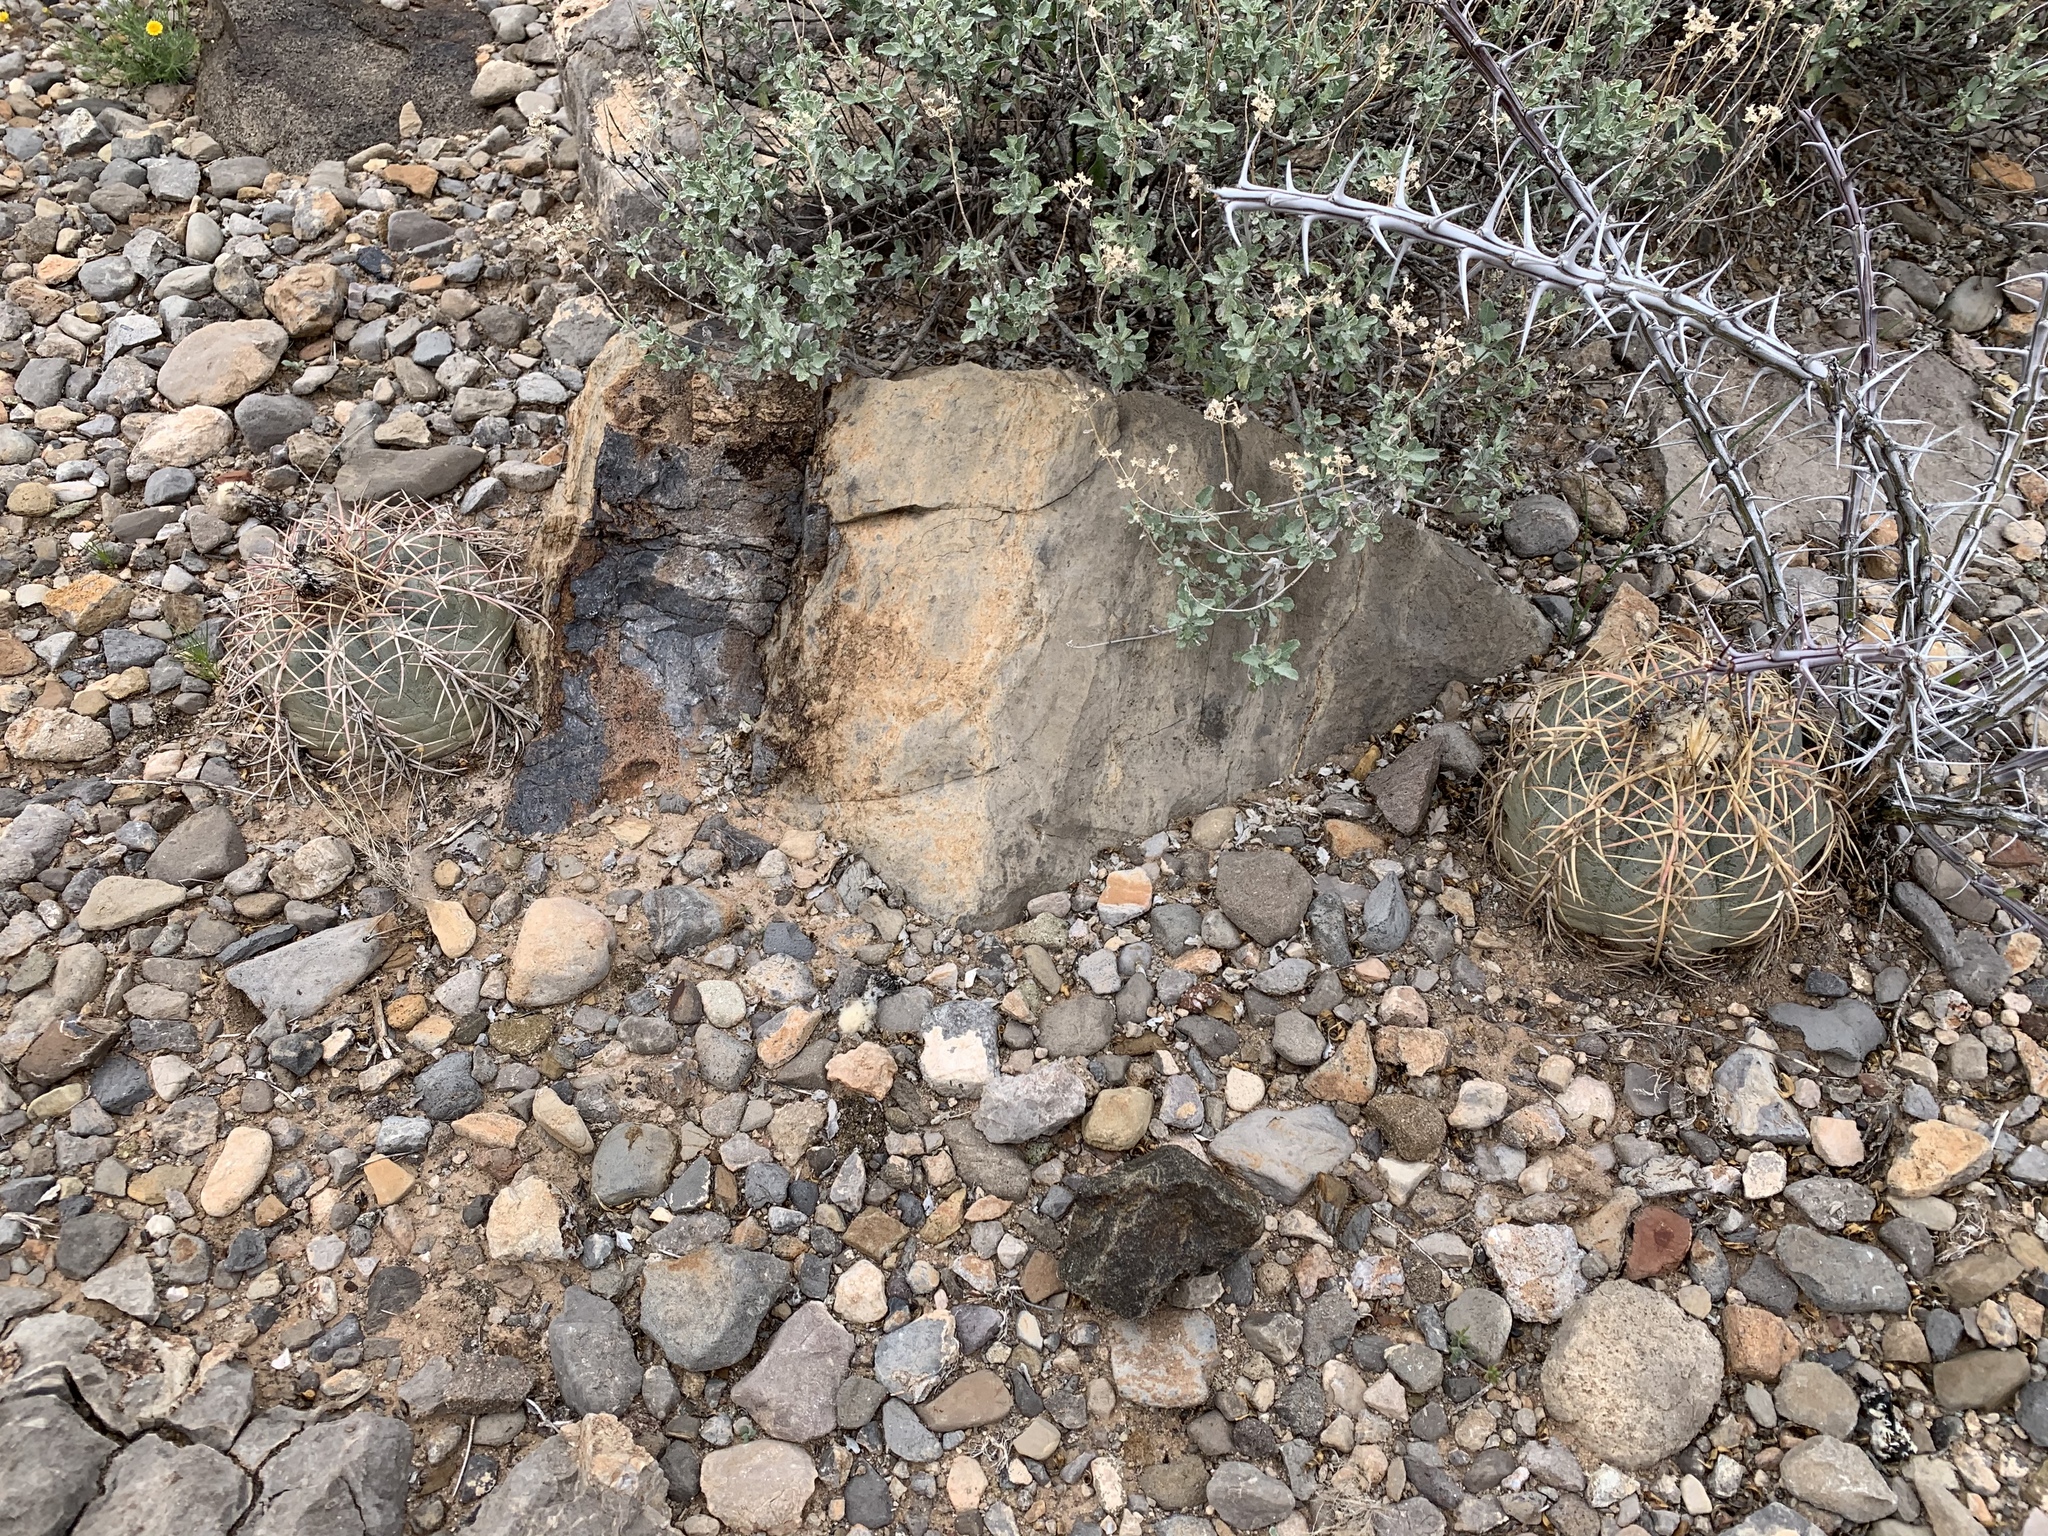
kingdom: Plantae
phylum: Tracheophyta
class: Magnoliopsida
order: Caryophyllales
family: Cactaceae
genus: Echinocactus
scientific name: Echinocactus horizonthalonius
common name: Devilshead
